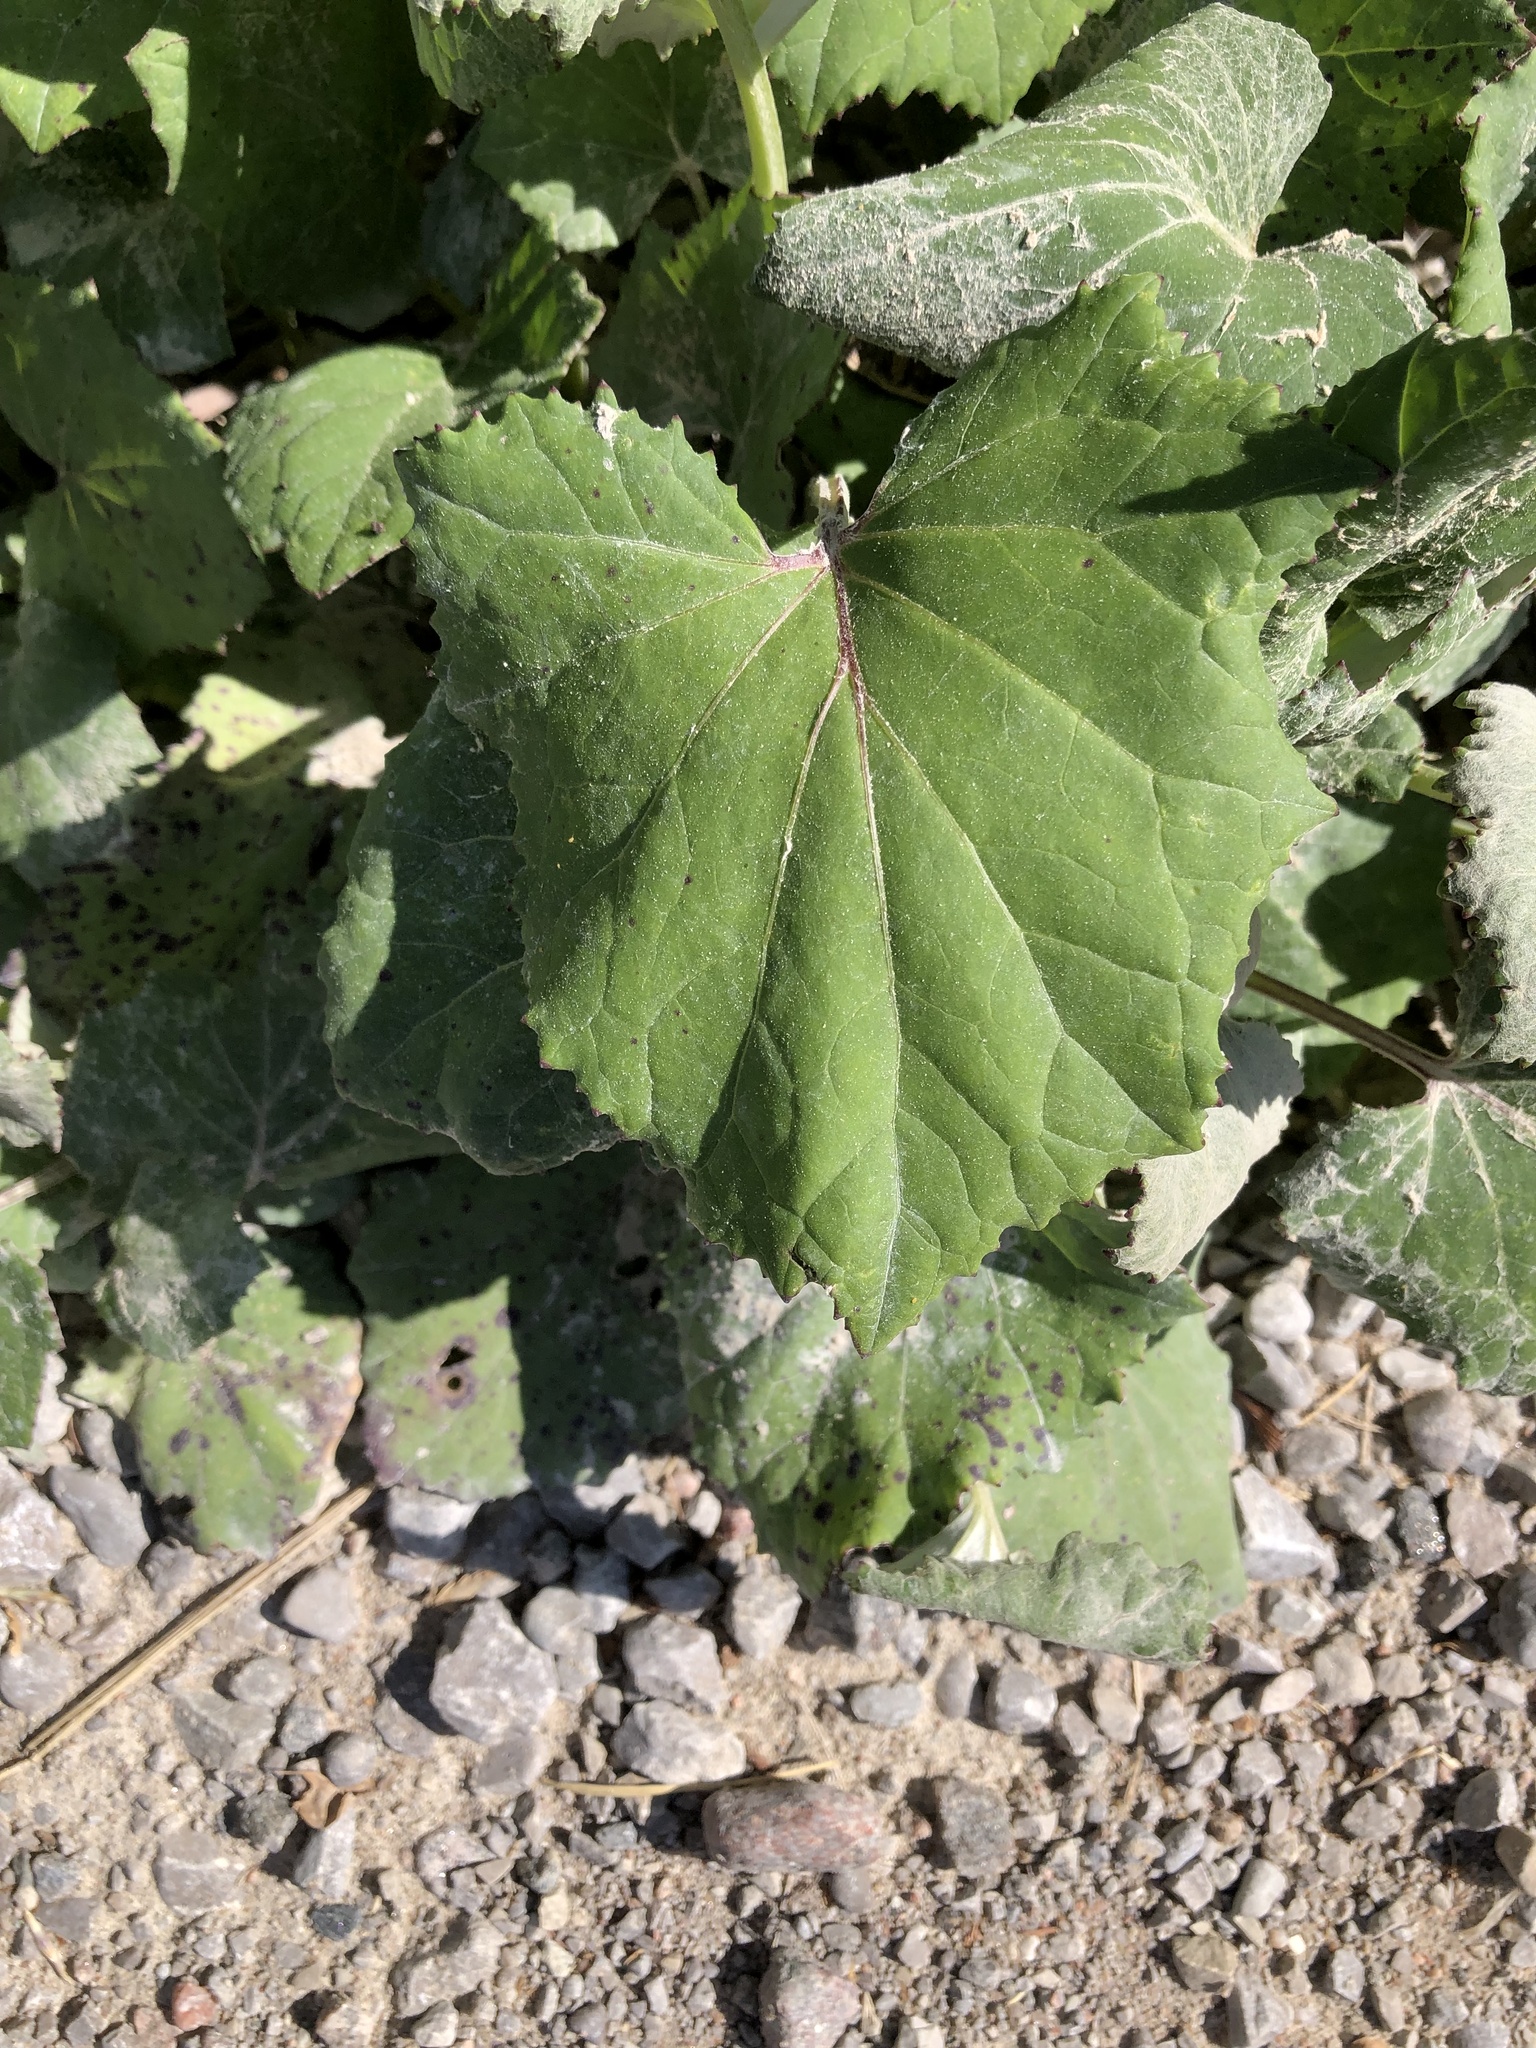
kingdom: Plantae
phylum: Tracheophyta
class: Magnoliopsida
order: Asterales
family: Asteraceae
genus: Tussilago
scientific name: Tussilago farfara
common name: Coltsfoot
